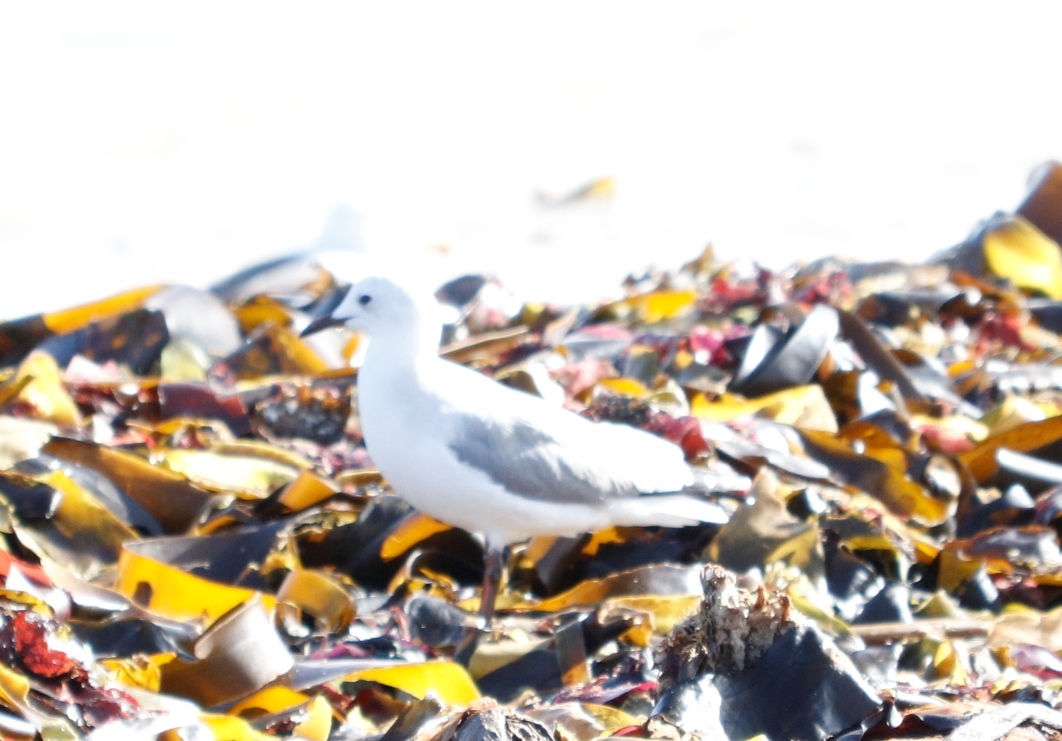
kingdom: Animalia
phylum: Chordata
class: Aves
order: Charadriiformes
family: Laridae
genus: Chroicocephalus
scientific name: Chroicocephalus hartlaubii
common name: Hartlaub's gull
